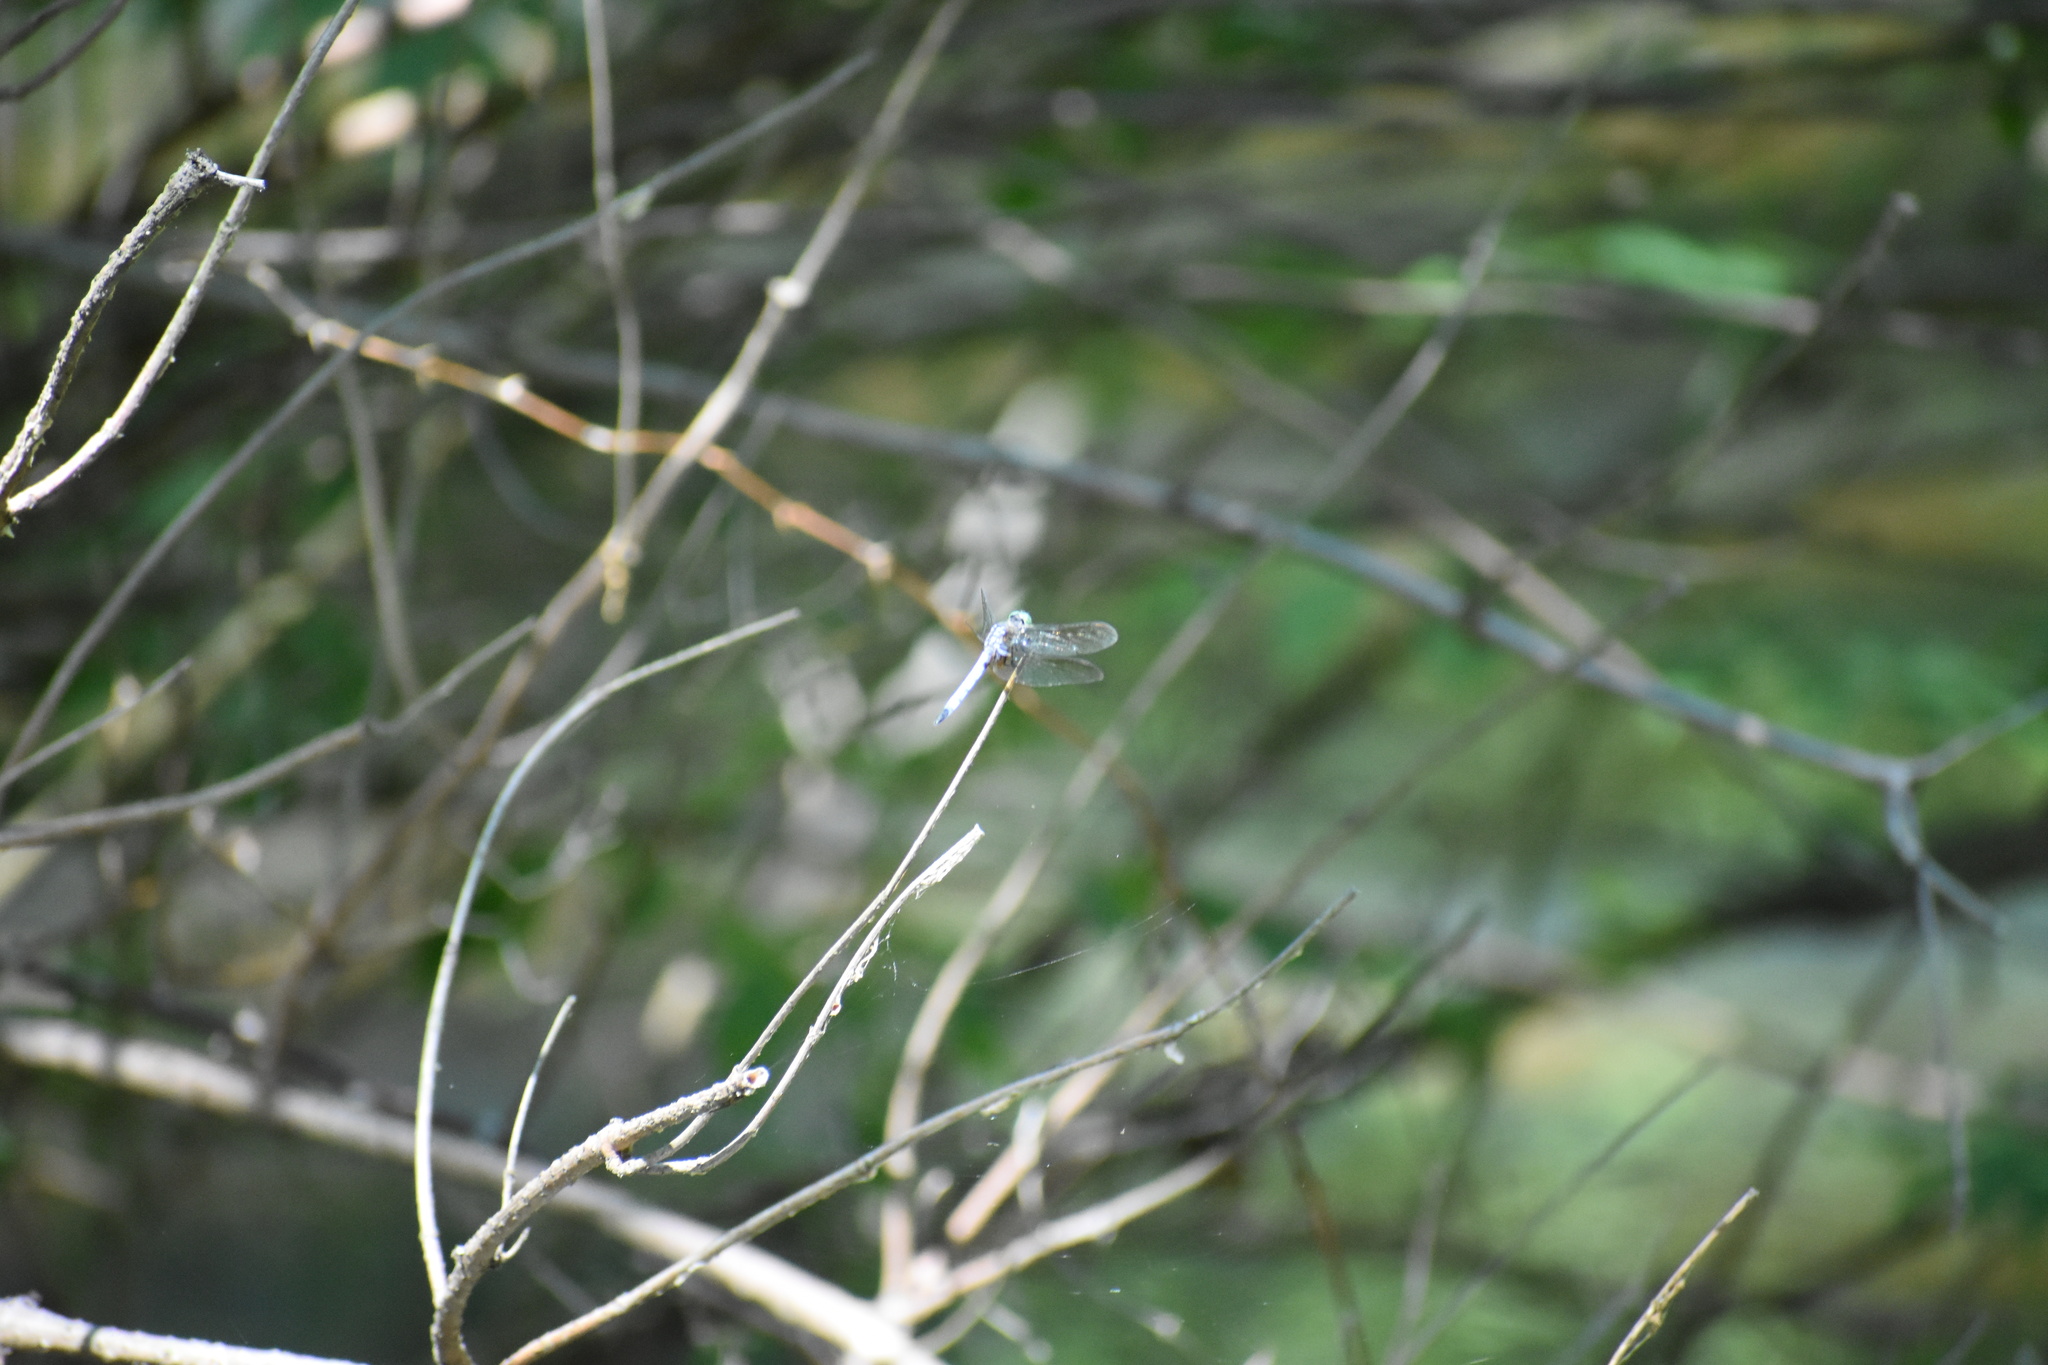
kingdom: Animalia
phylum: Arthropoda
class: Insecta
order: Odonata
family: Libellulidae
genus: Pachydiplax
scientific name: Pachydiplax longipennis
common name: Blue dasher
